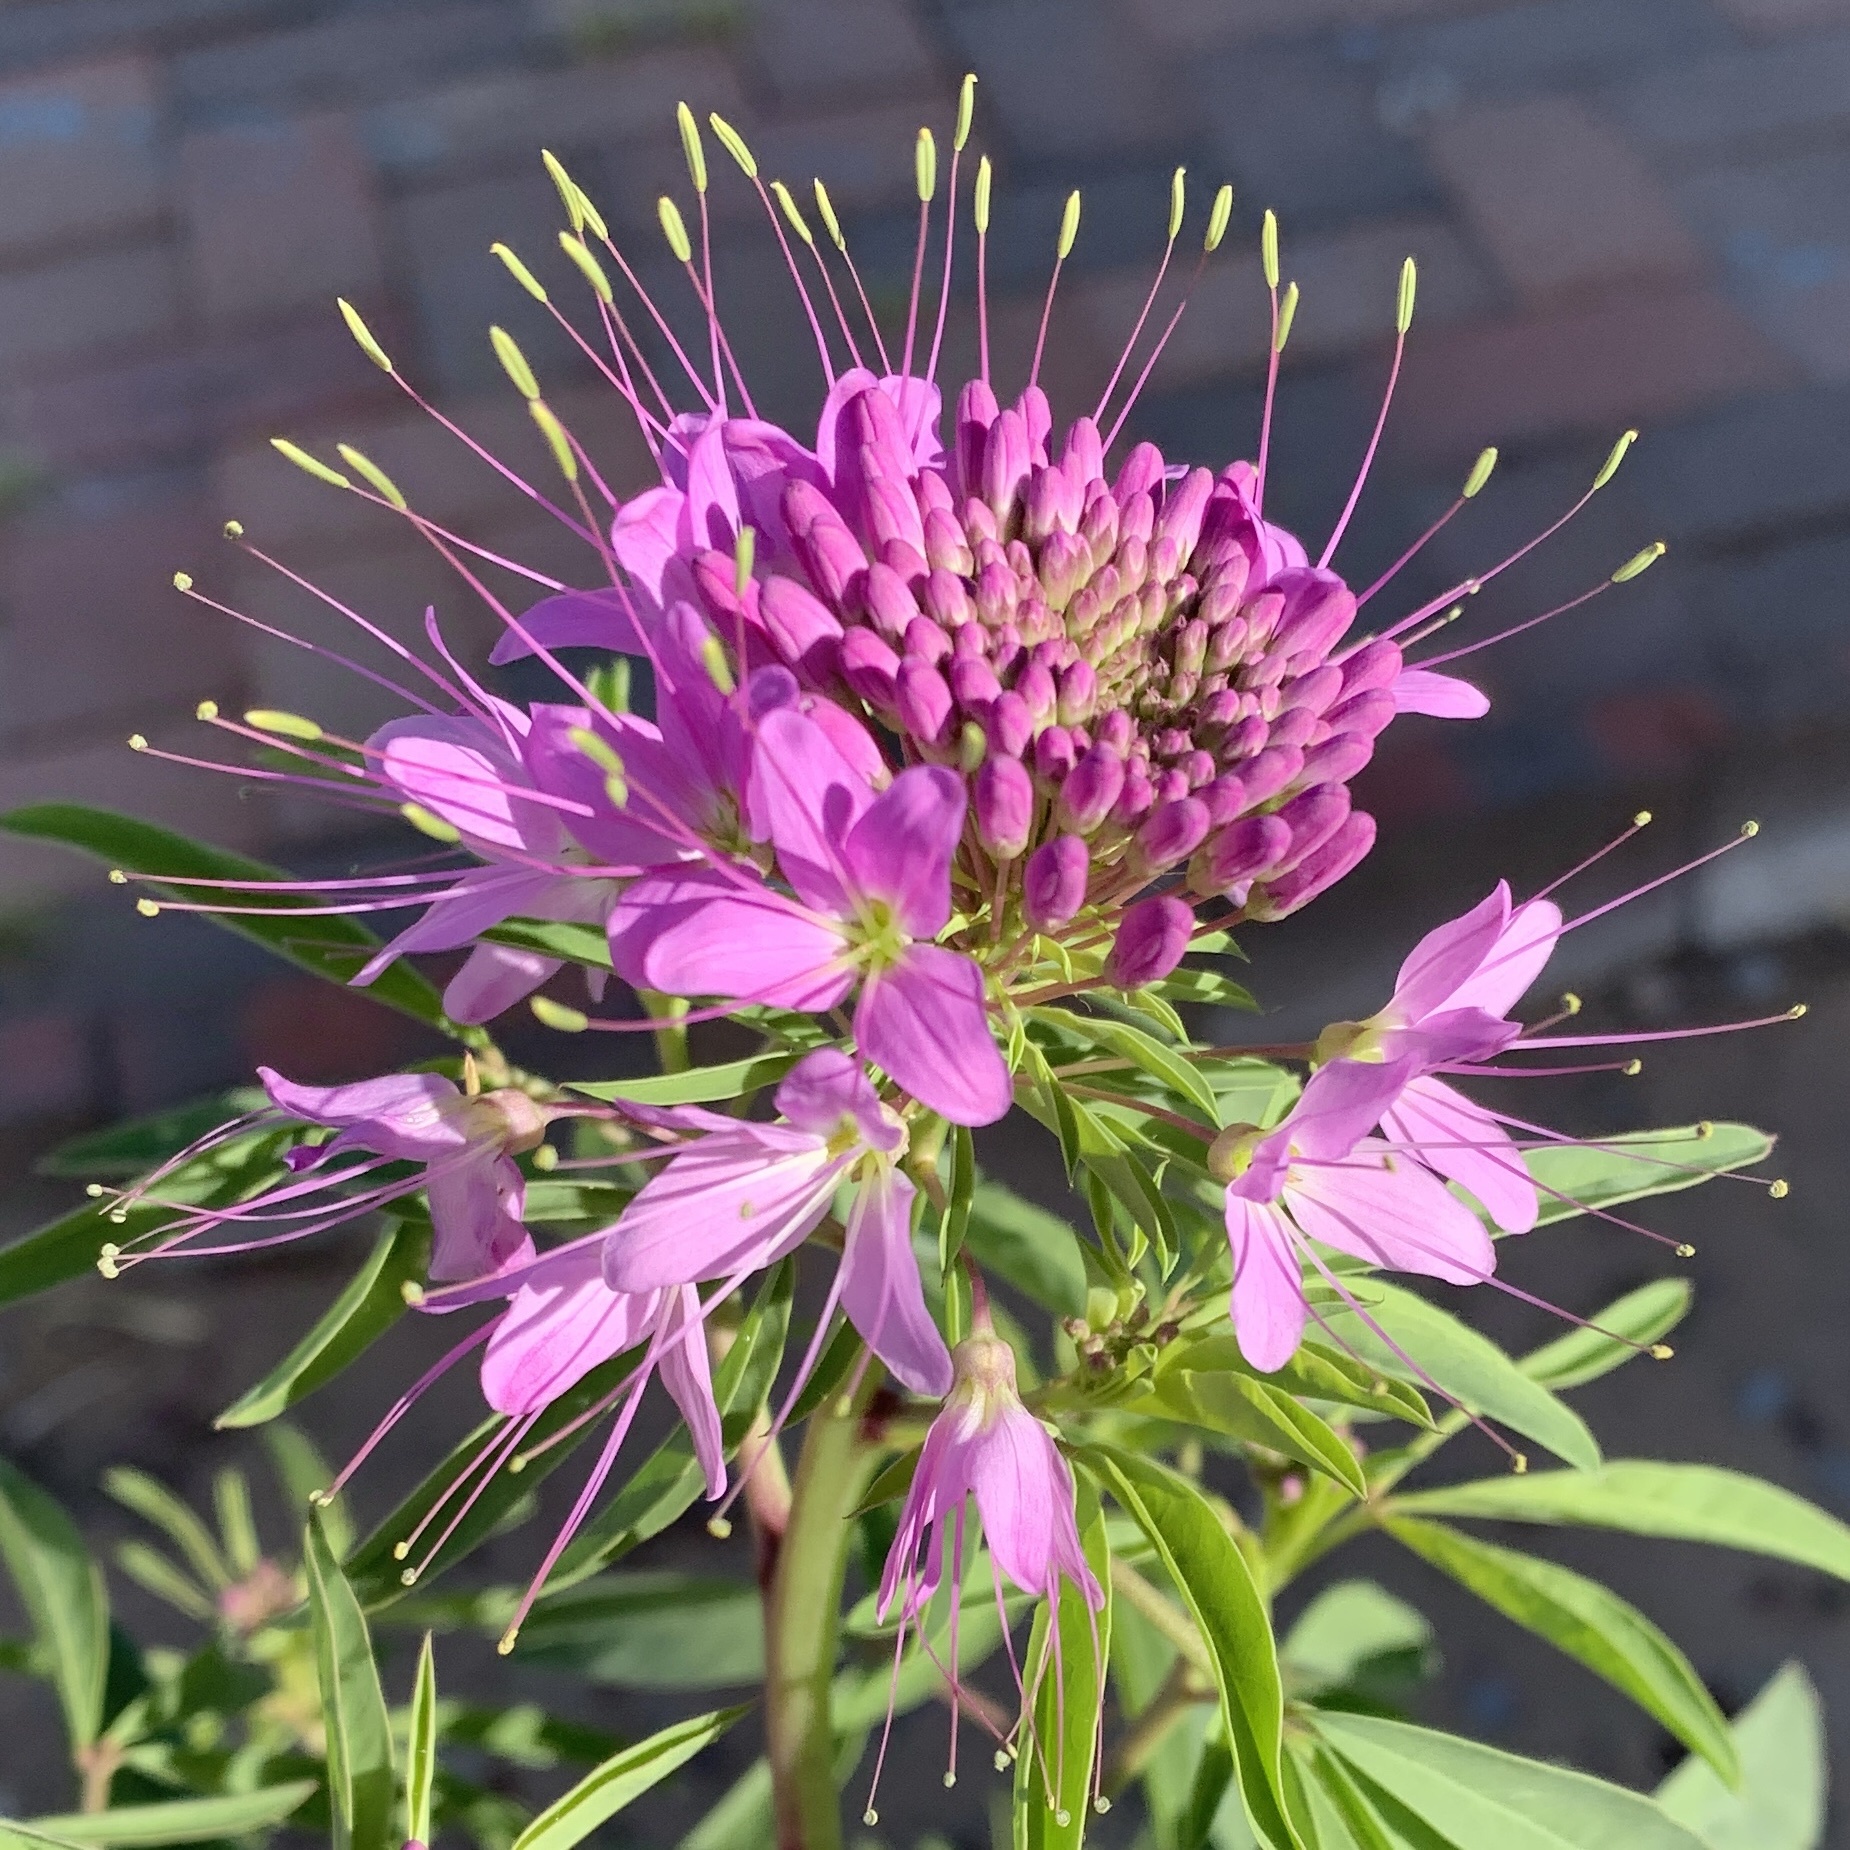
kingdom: Plantae
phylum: Tracheophyta
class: Magnoliopsida
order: Brassicales
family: Cleomaceae
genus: Cleomella
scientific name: Cleomella serrulata
